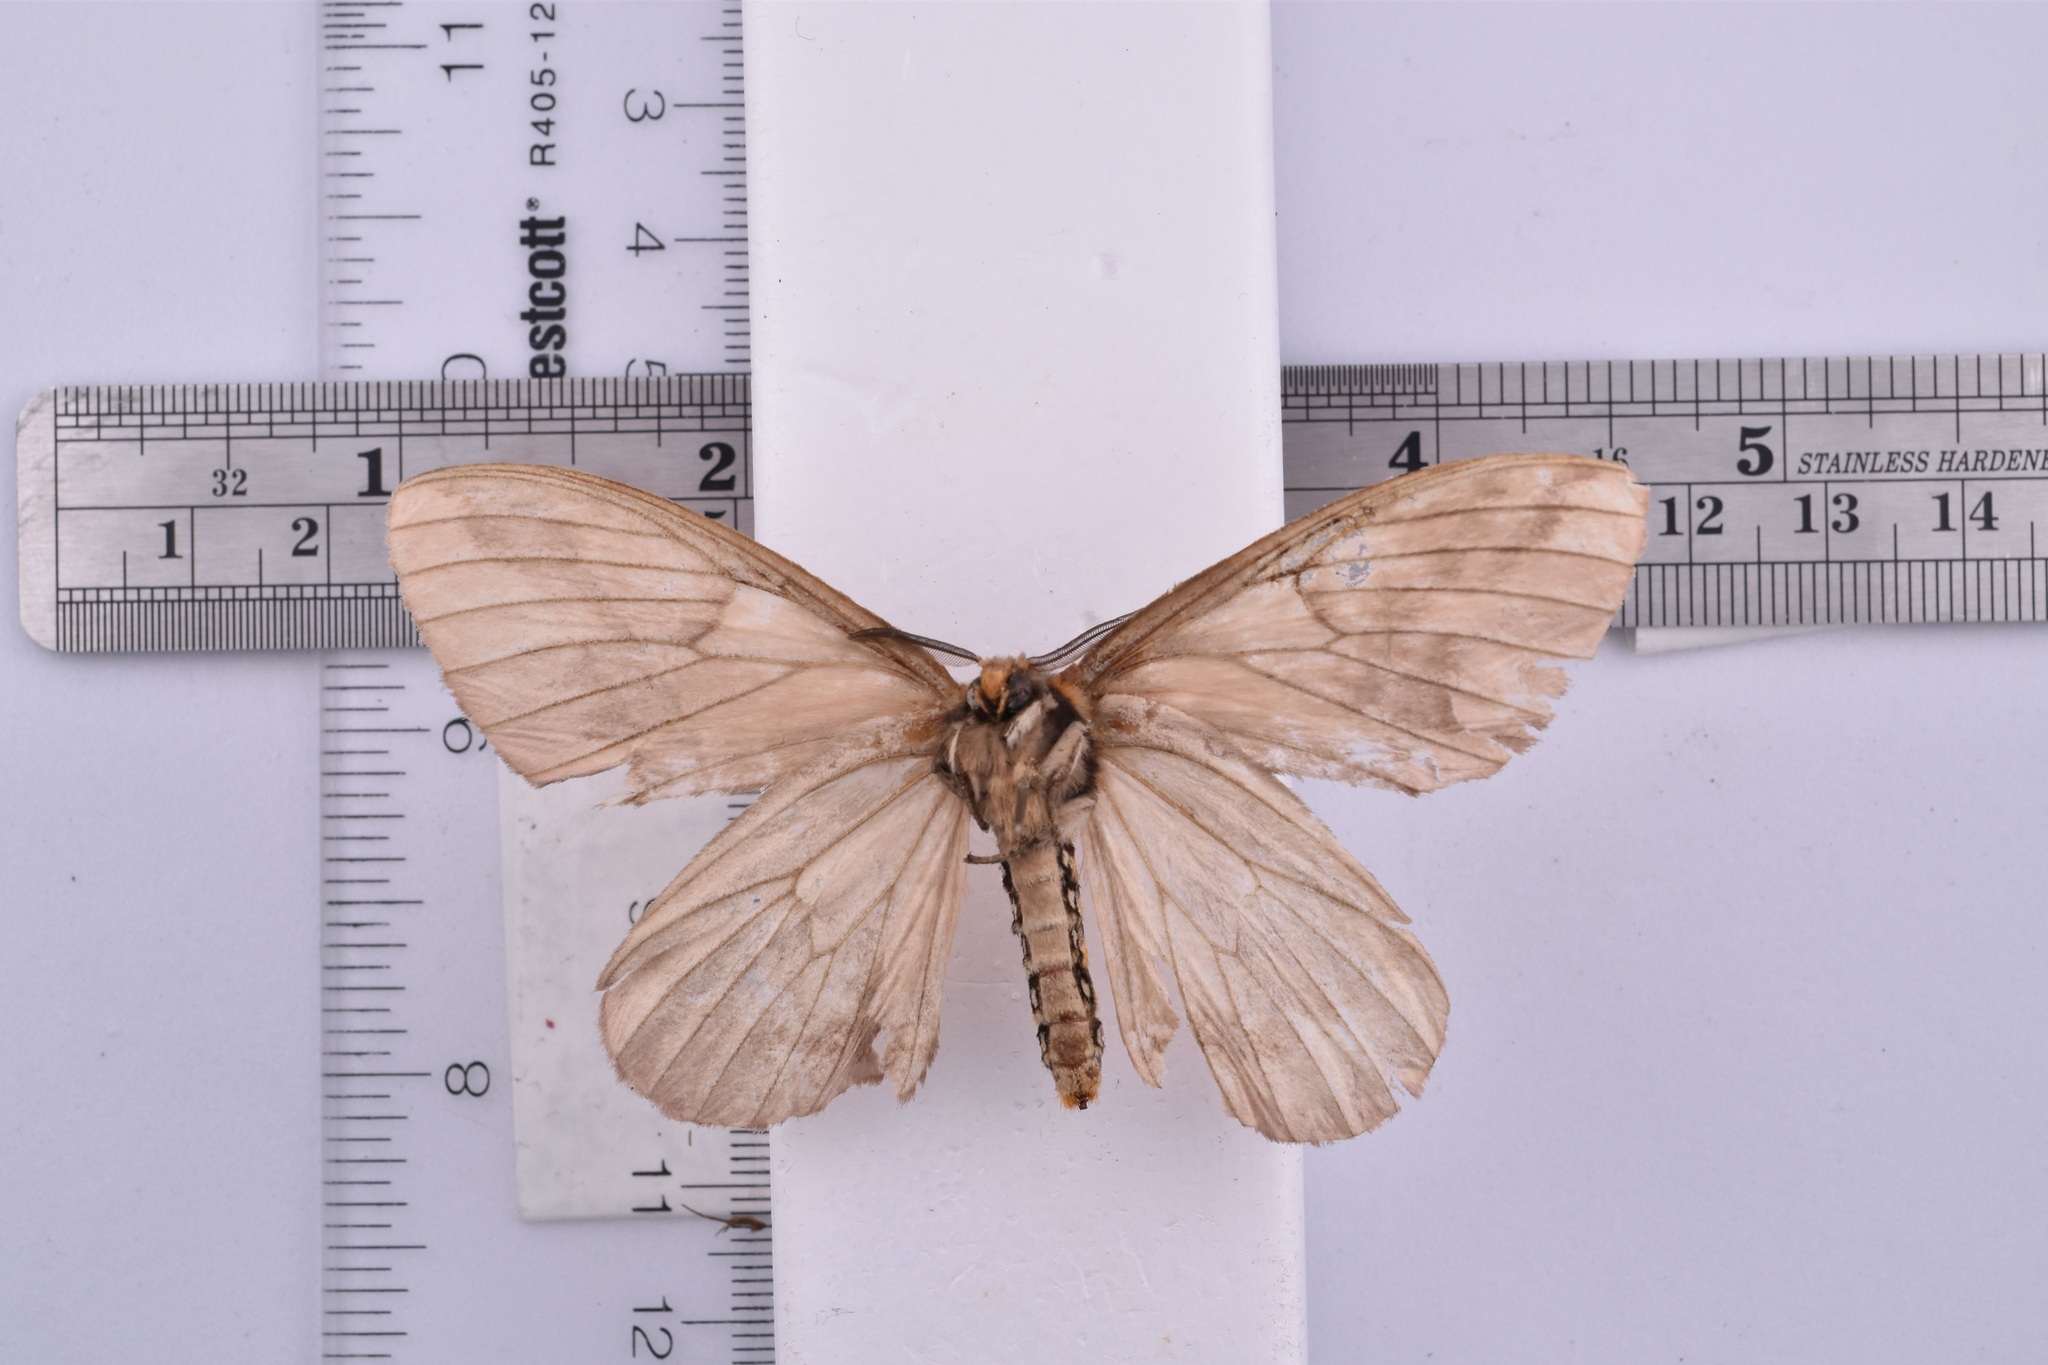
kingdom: Animalia
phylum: Arthropoda
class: Insecta
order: Lepidoptera
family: Saturniidae
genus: Pseudodirphia
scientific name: Pseudodirphia obliqua
